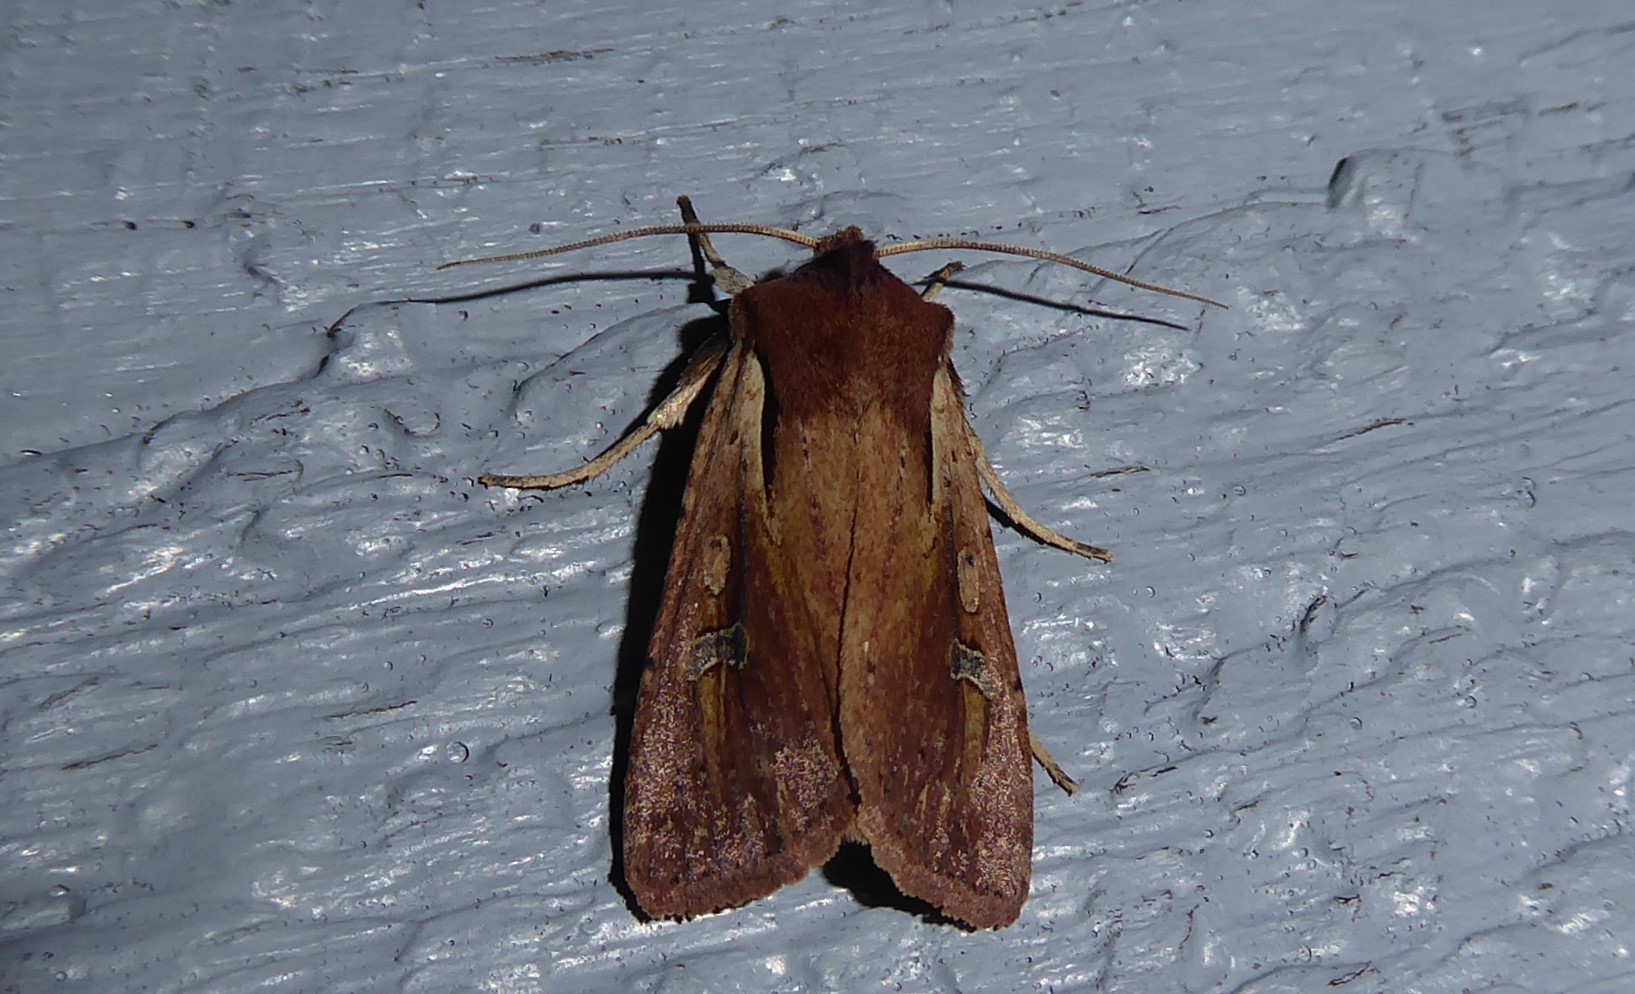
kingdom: Animalia
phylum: Arthropoda
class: Insecta
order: Lepidoptera
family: Noctuidae
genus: Ichneutica
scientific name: Ichneutica atristriga
